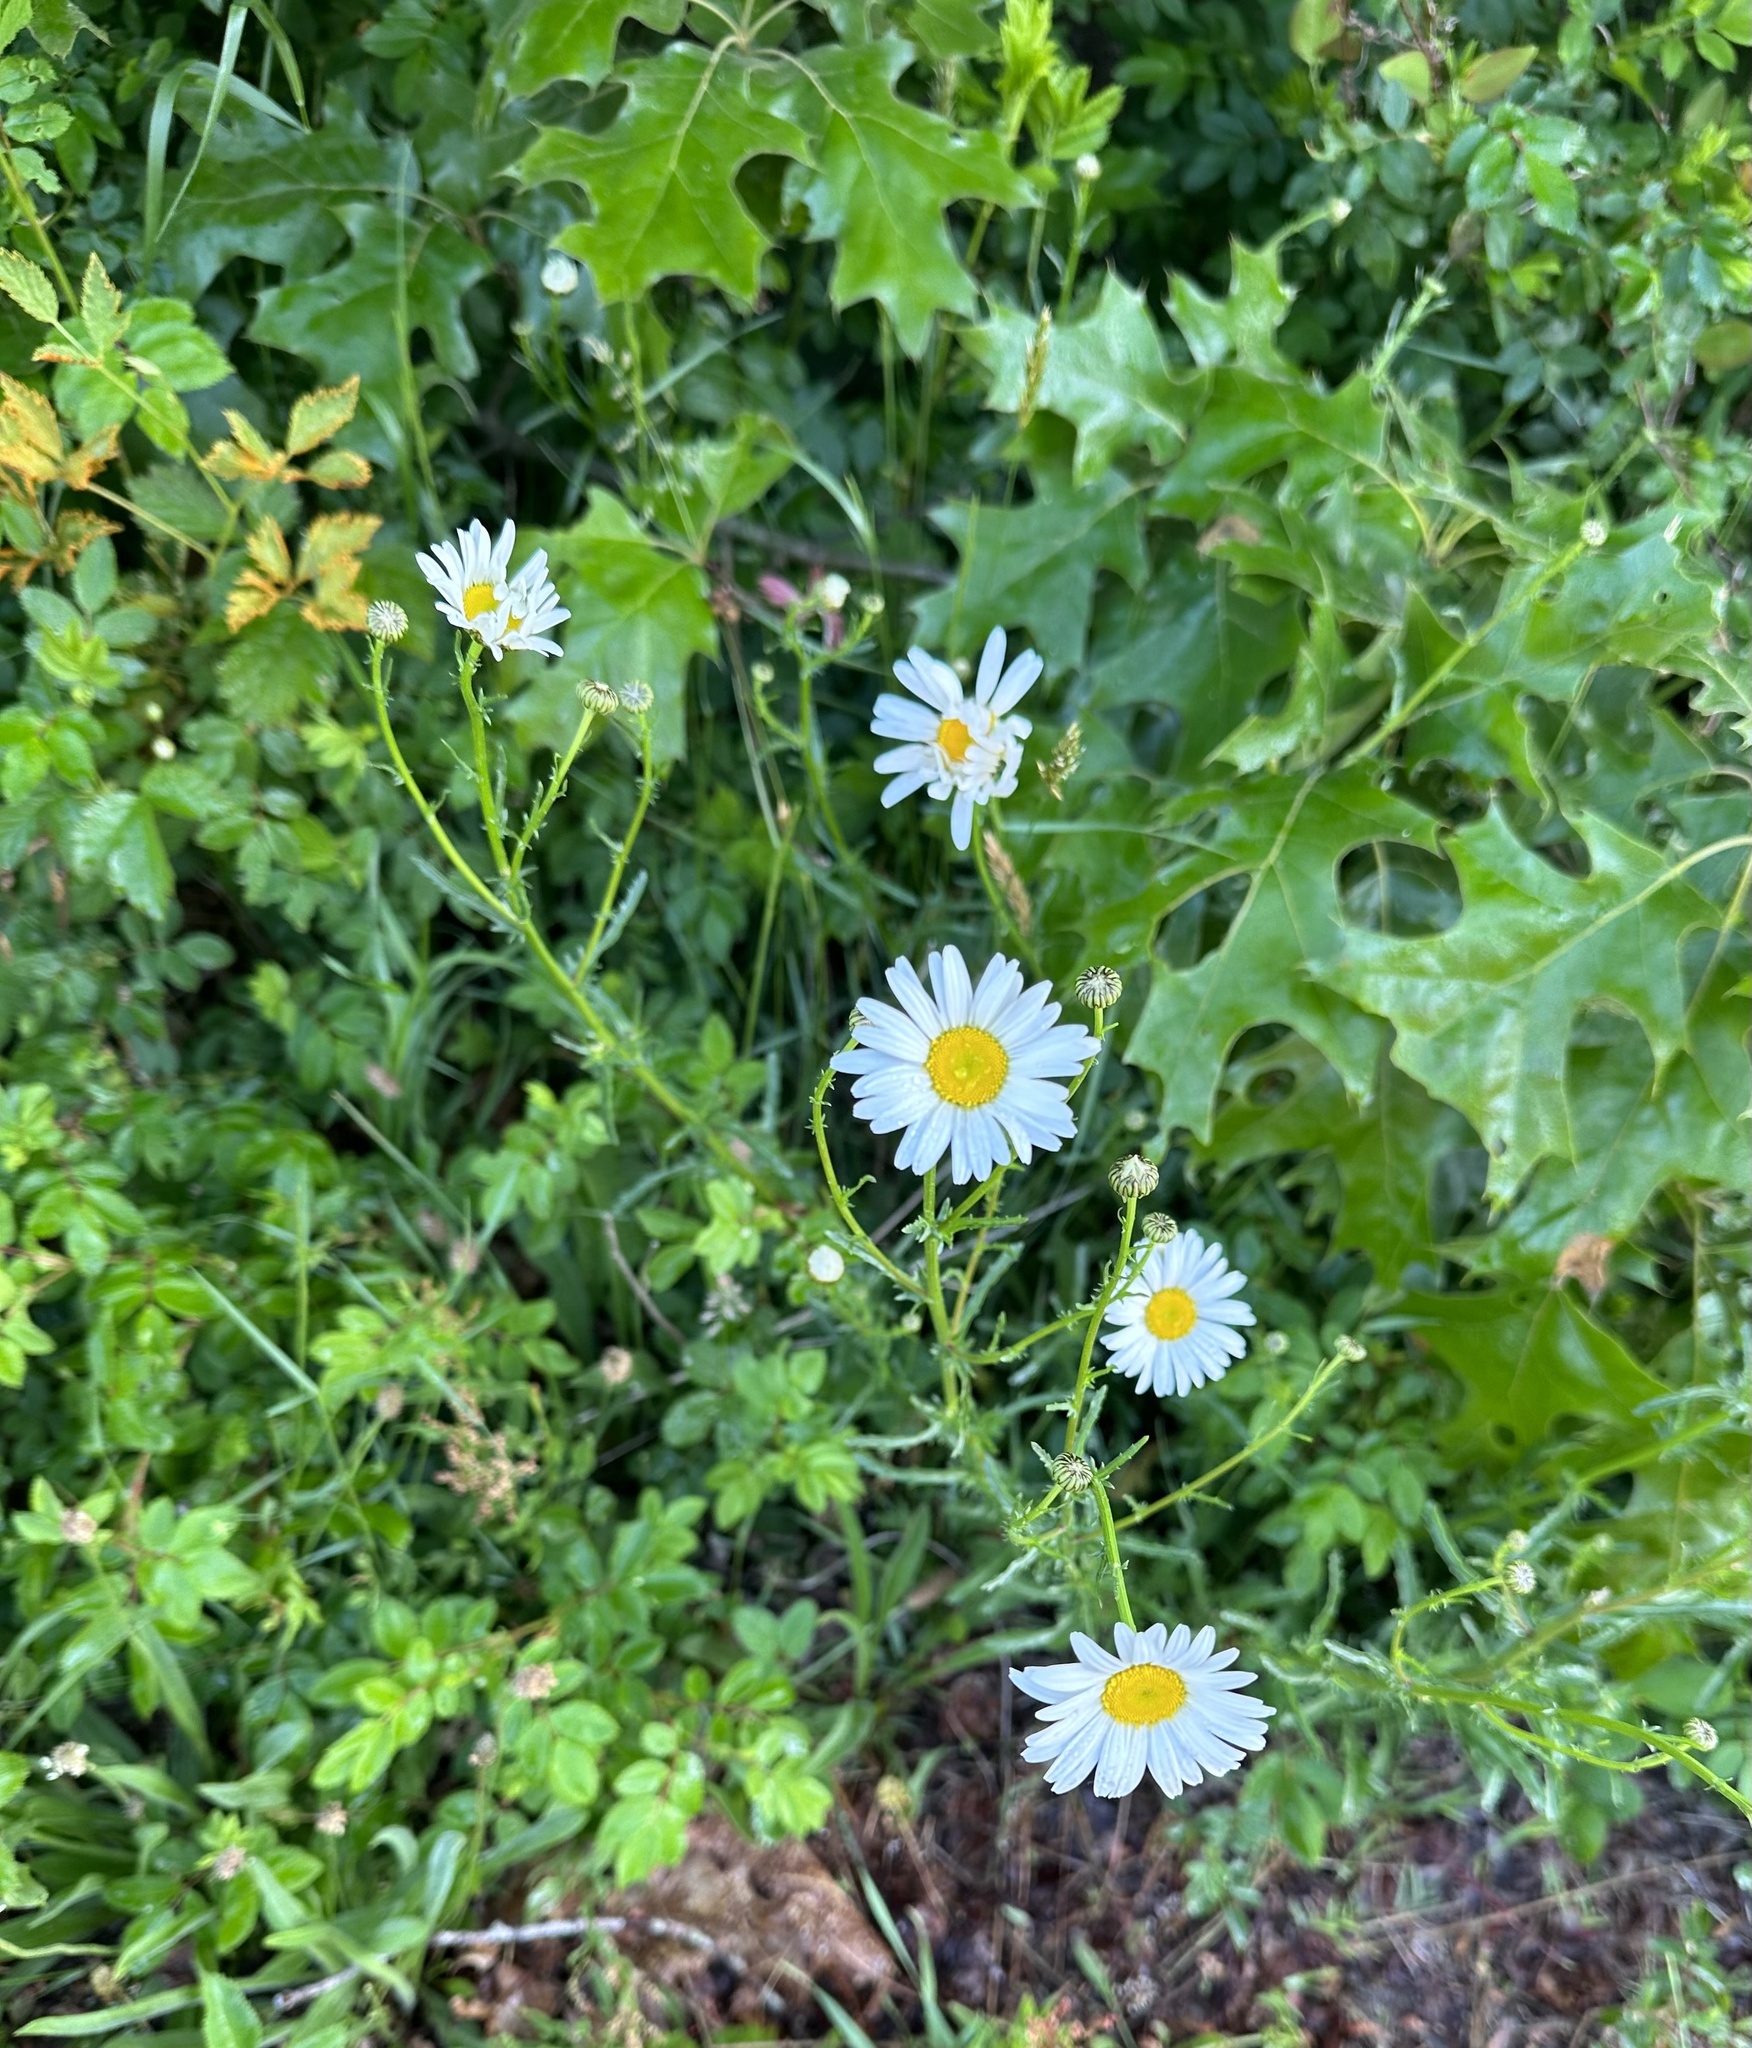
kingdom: Plantae
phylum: Tracheophyta
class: Magnoliopsida
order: Asterales
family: Asteraceae
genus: Leucanthemum
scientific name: Leucanthemum vulgare
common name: Oxeye daisy
